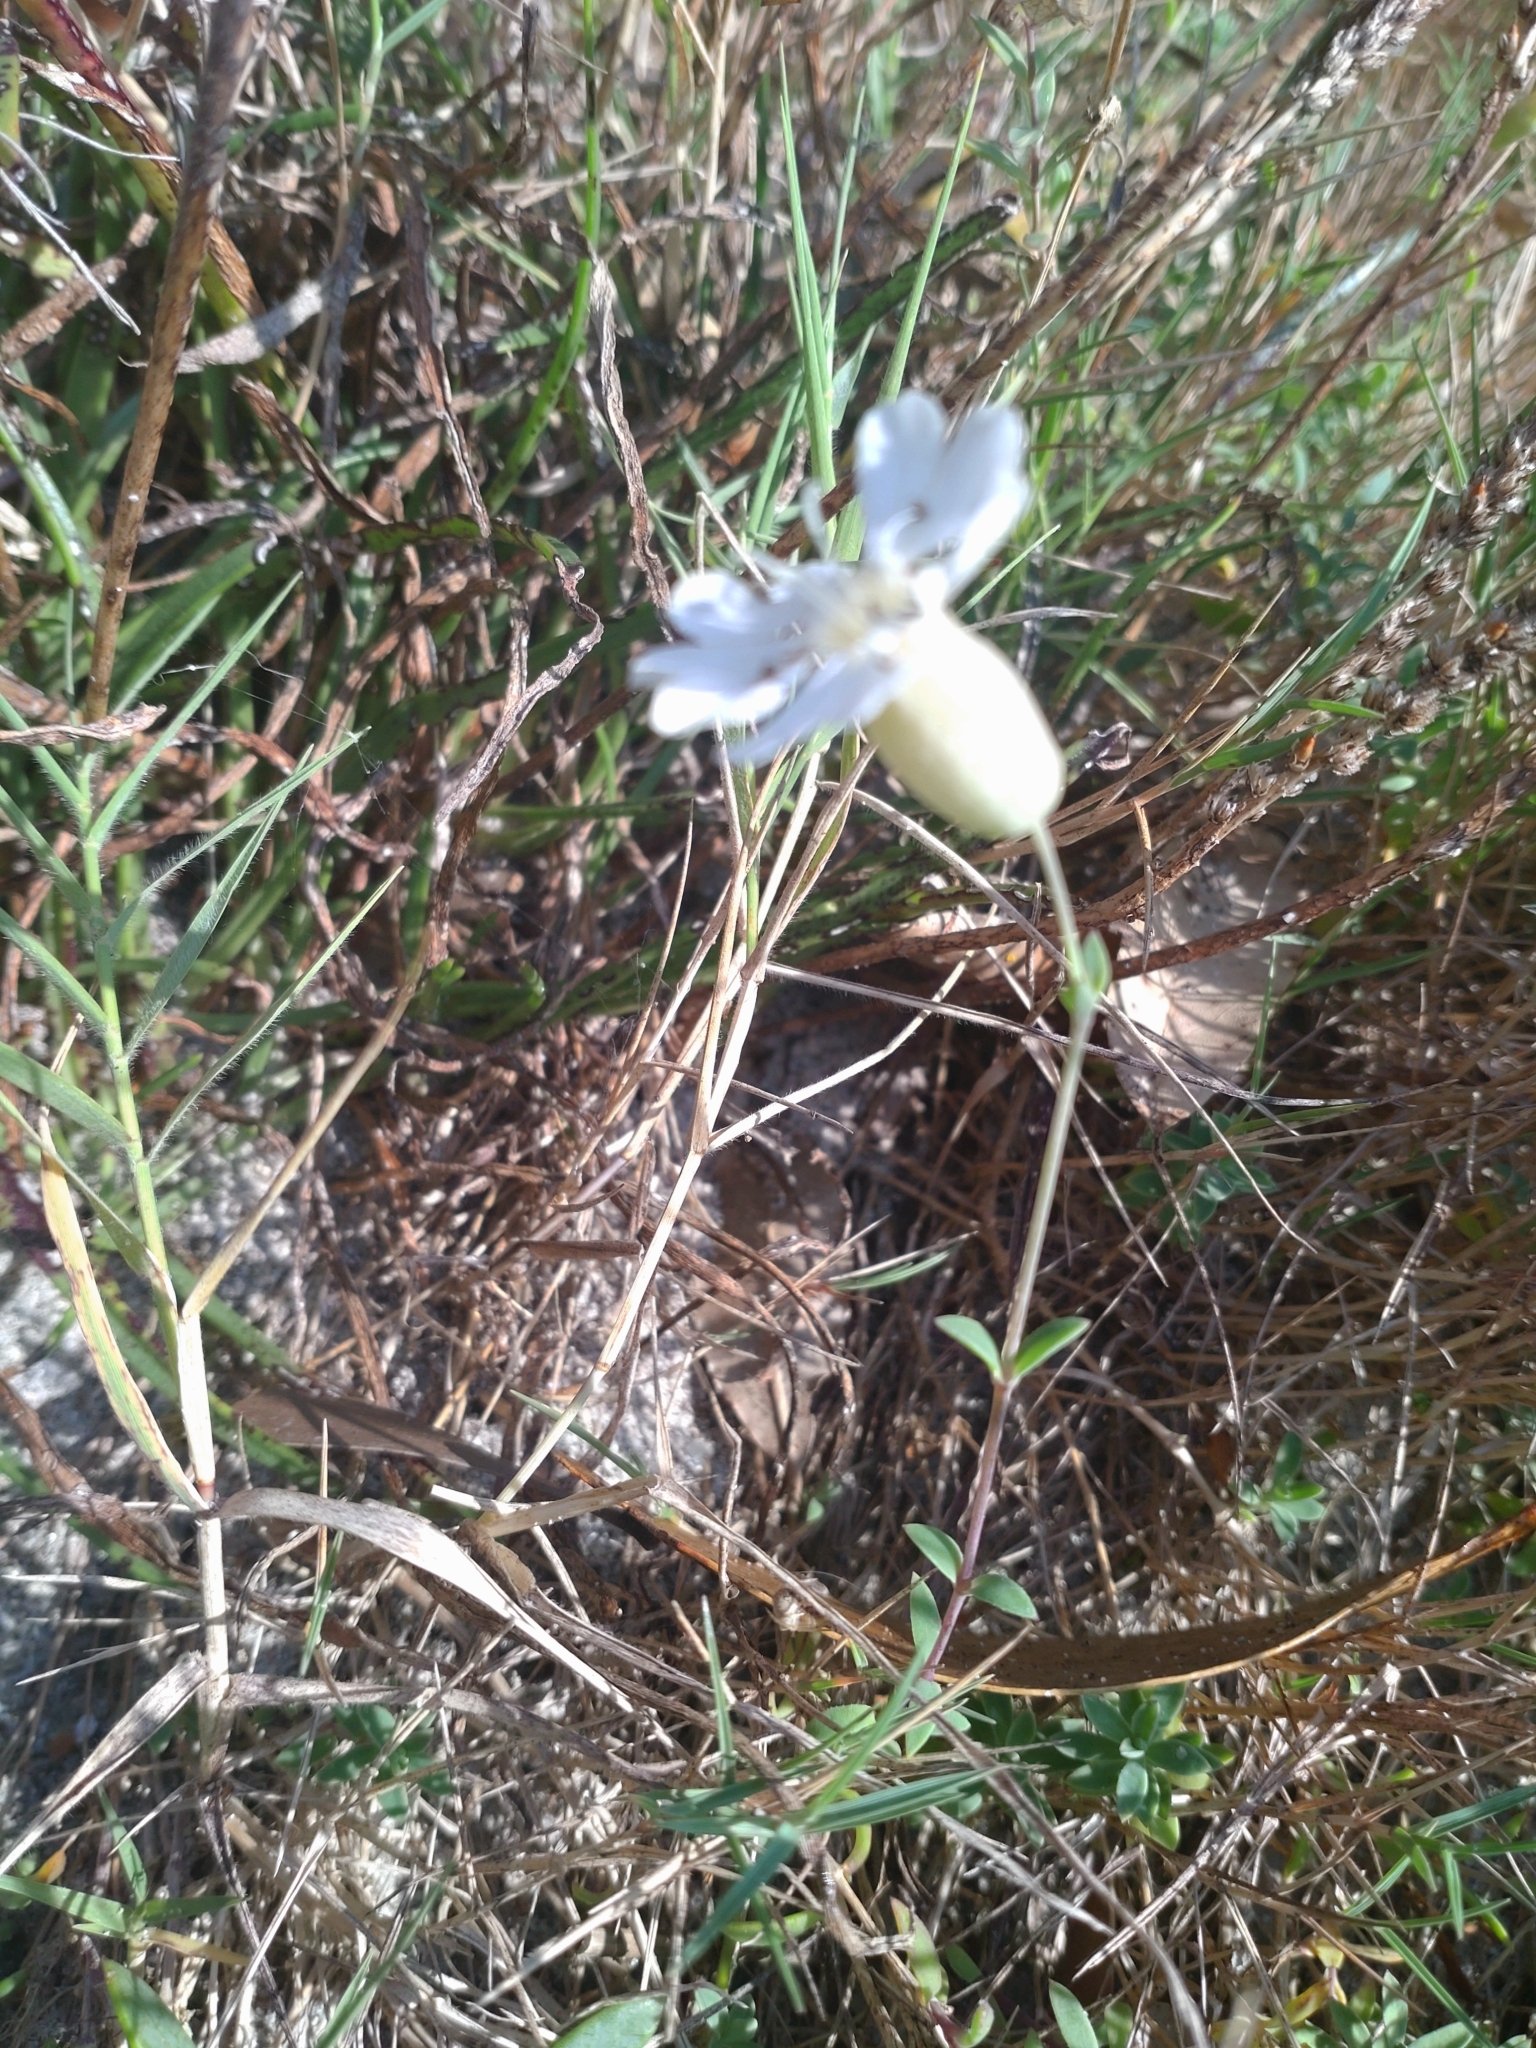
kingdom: Plantae
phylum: Tracheophyta
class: Magnoliopsida
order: Caryophyllales
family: Caryophyllaceae
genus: Silene
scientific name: Silene uniflora
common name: Sea campion
